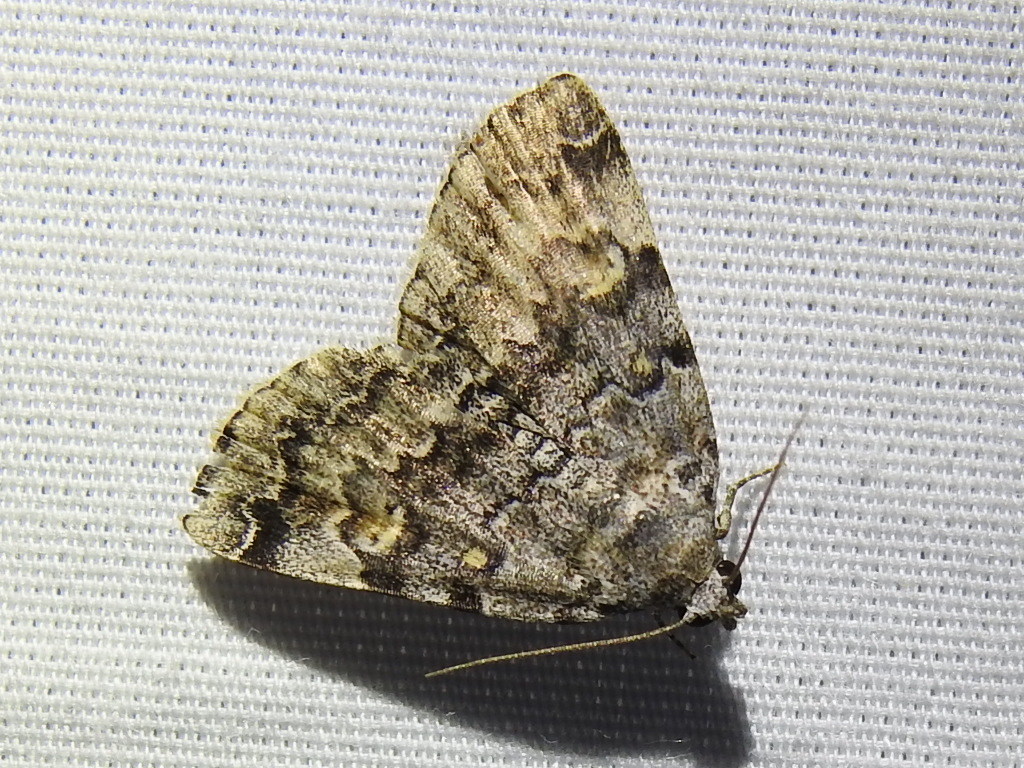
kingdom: Animalia
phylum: Arthropoda
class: Insecta
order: Lepidoptera
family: Erebidae
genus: Idia
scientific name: Idia americalis
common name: American idia moth
